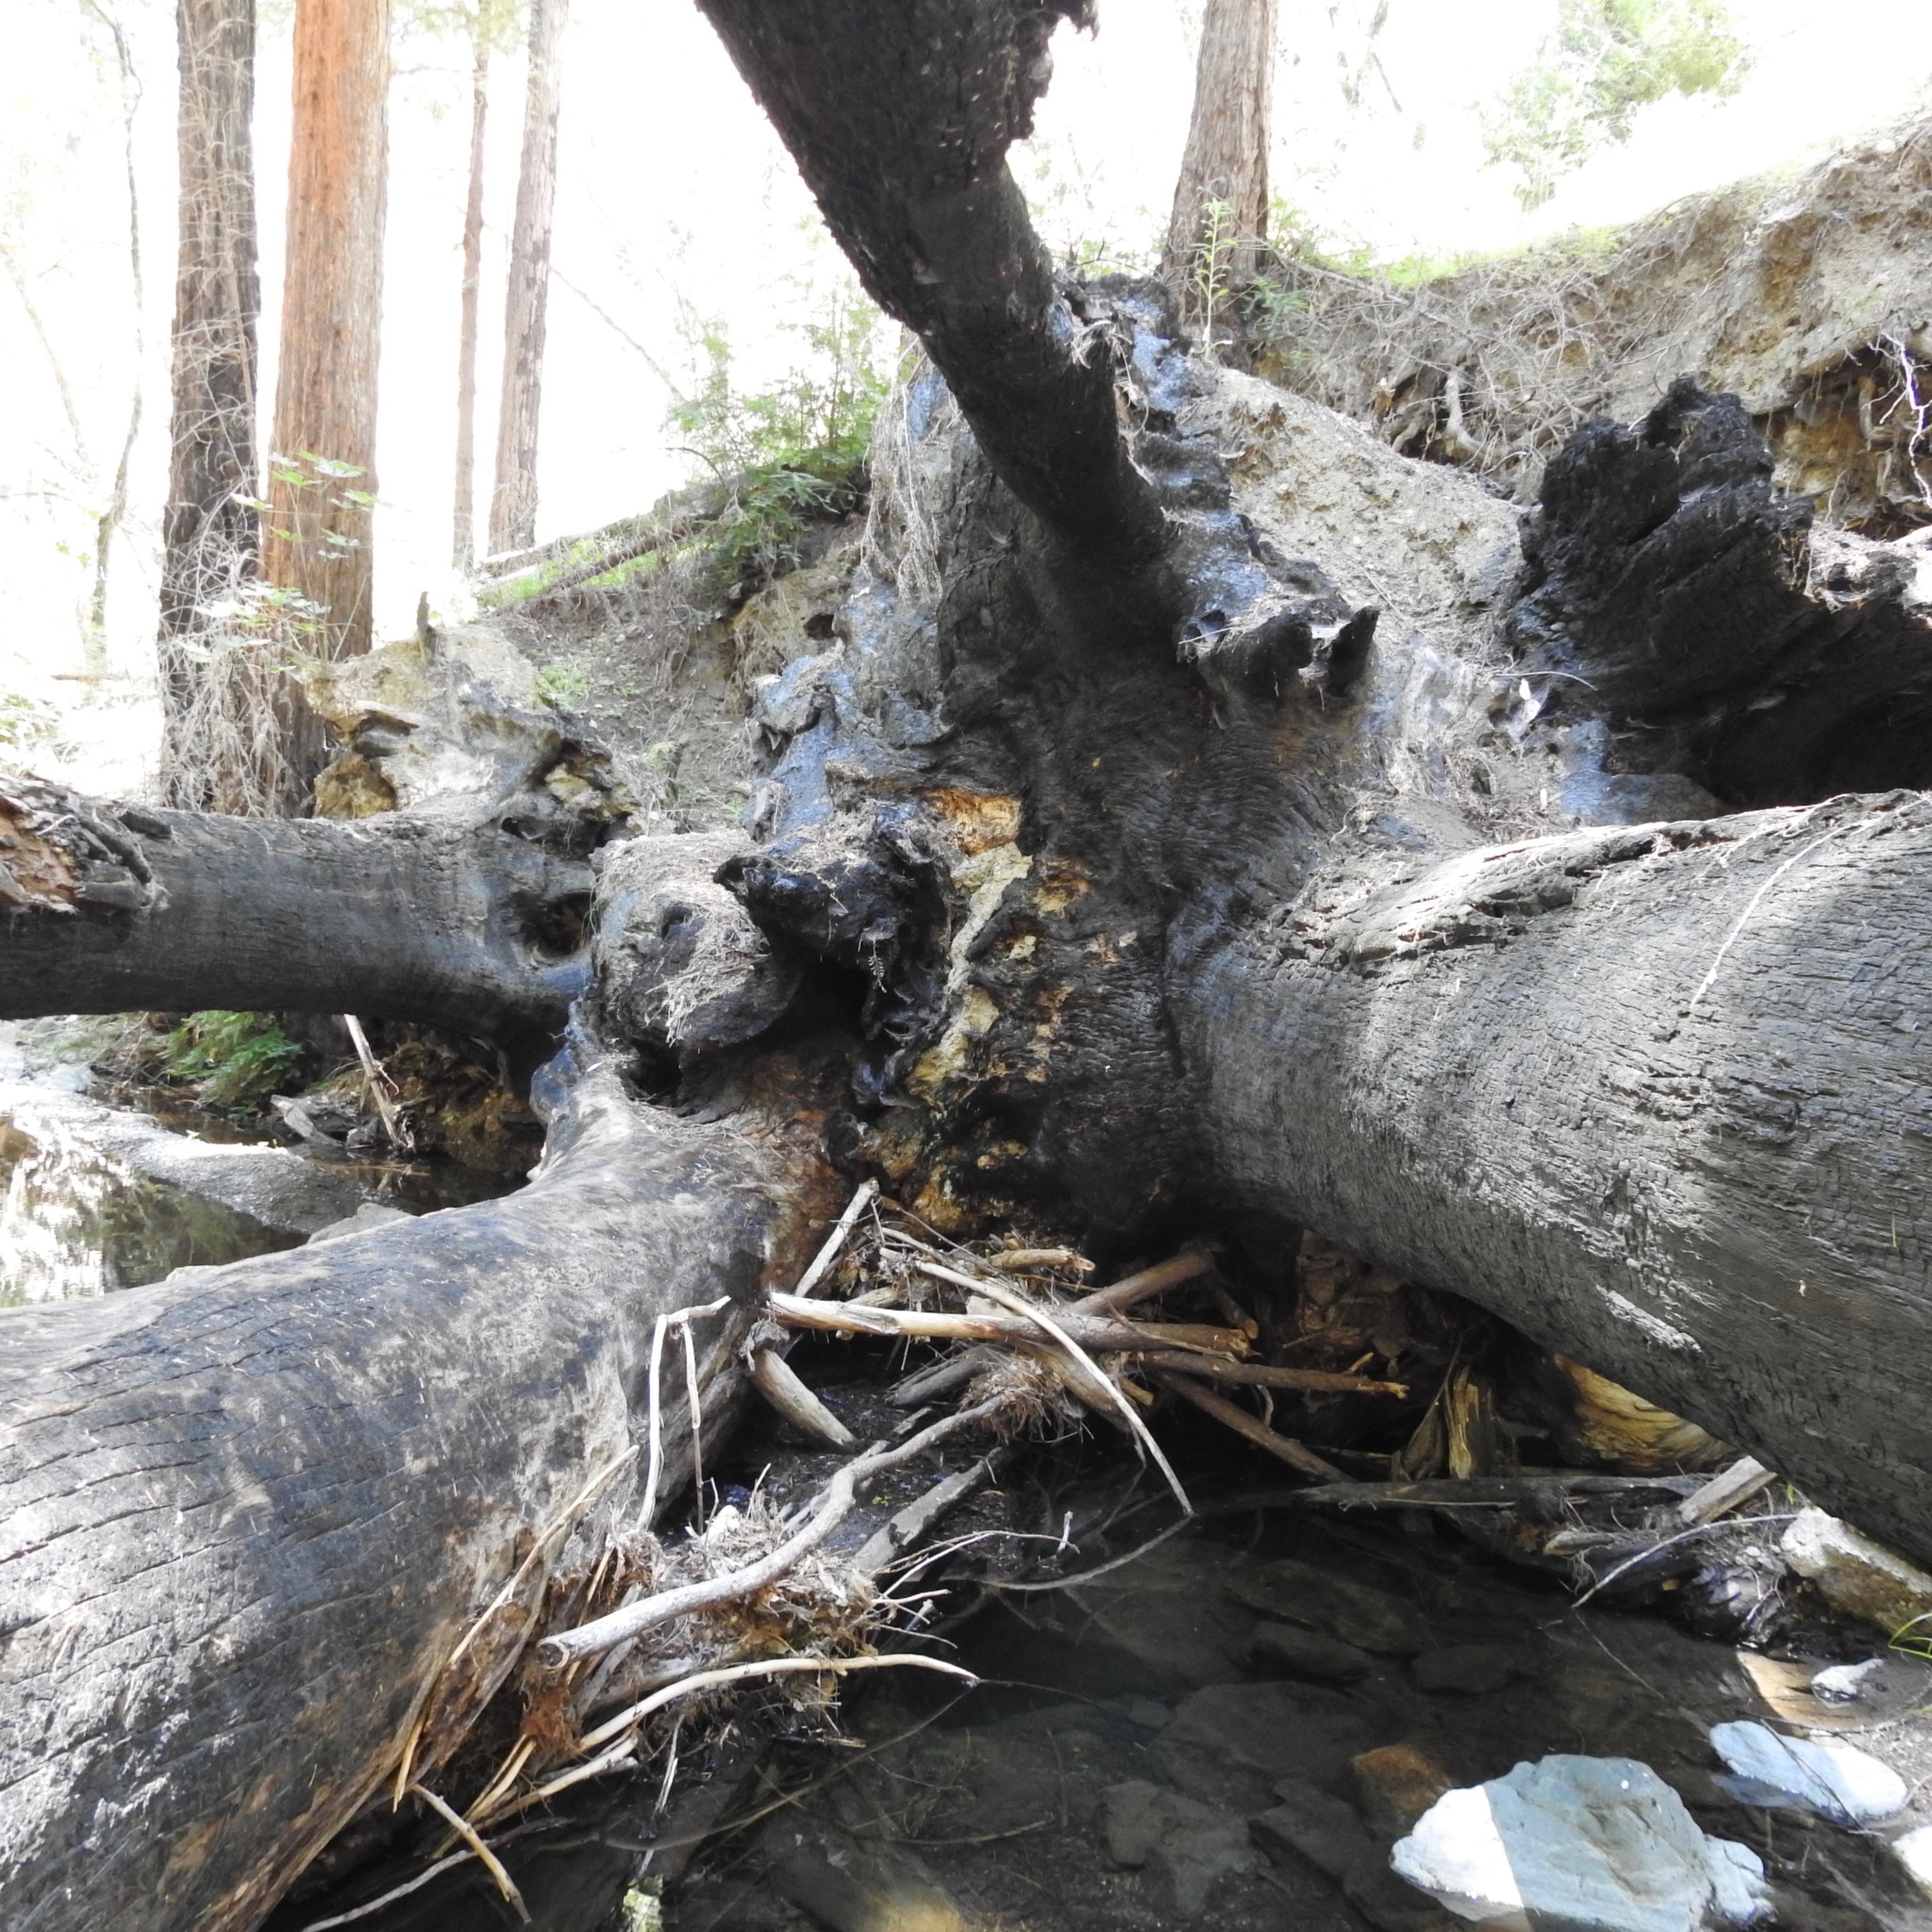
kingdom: Plantae
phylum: Tracheophyta
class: Pinopsida
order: Pinales
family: Cupressaceae
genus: Sequoia
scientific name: Sequoia sempervirens
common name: Coast redwood
